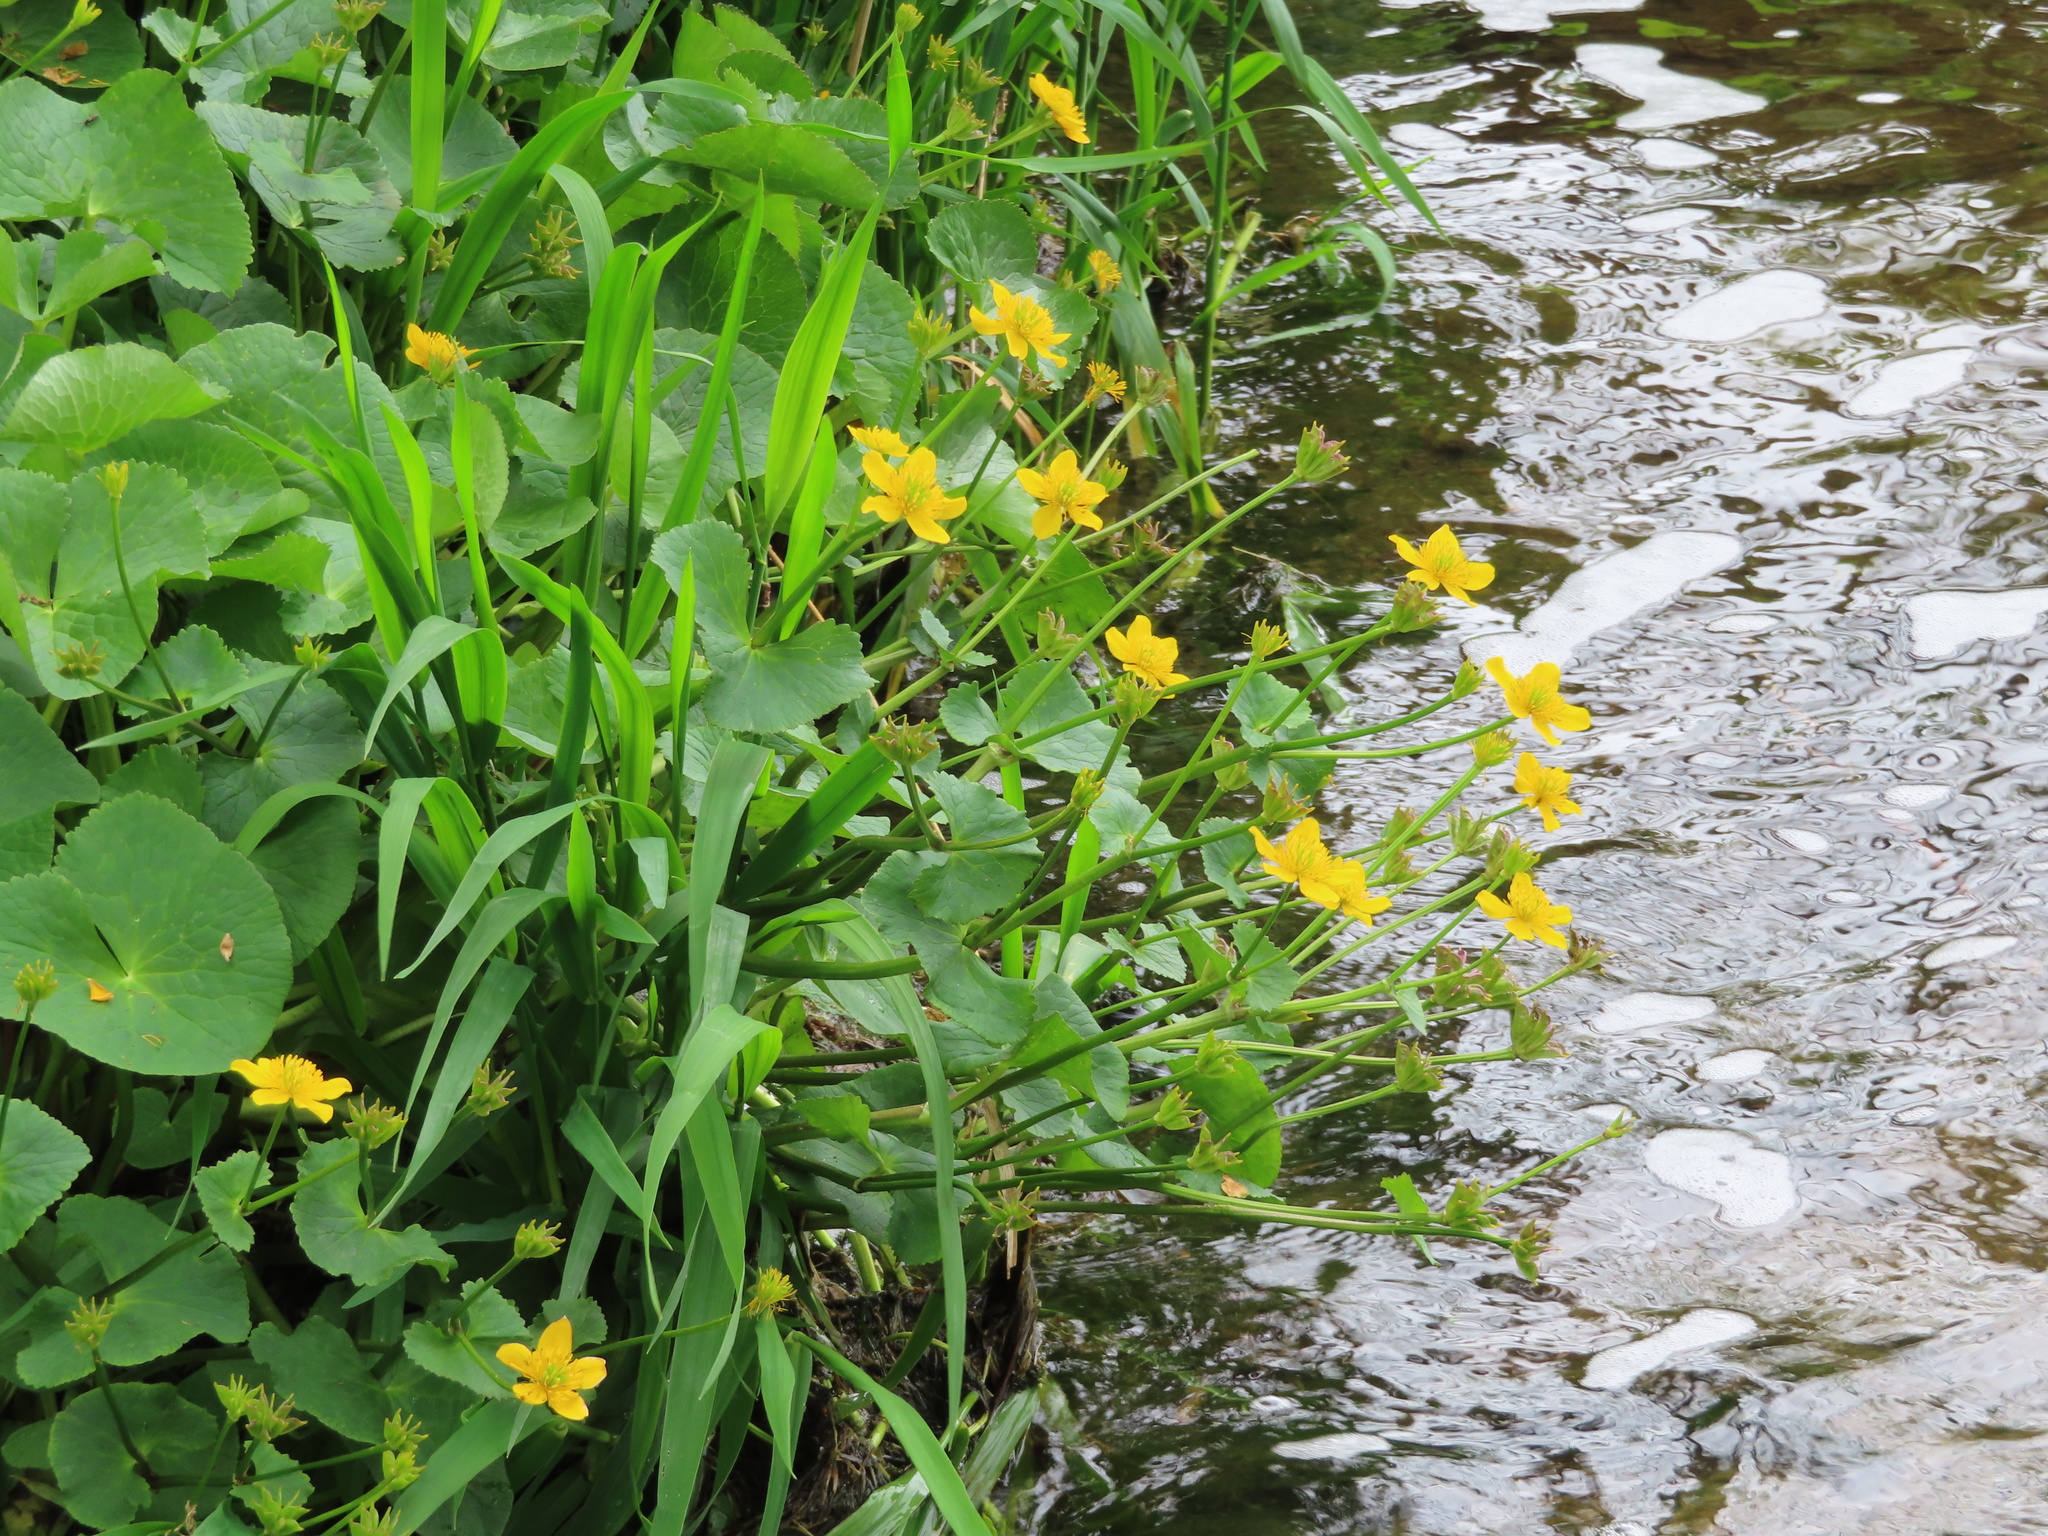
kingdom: Plantae
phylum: Tracheophyta
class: Magnoliopsida
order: Ranunculales
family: Ranunculaceae
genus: Caltha
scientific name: Caltha palustris
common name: Marsh marigold
